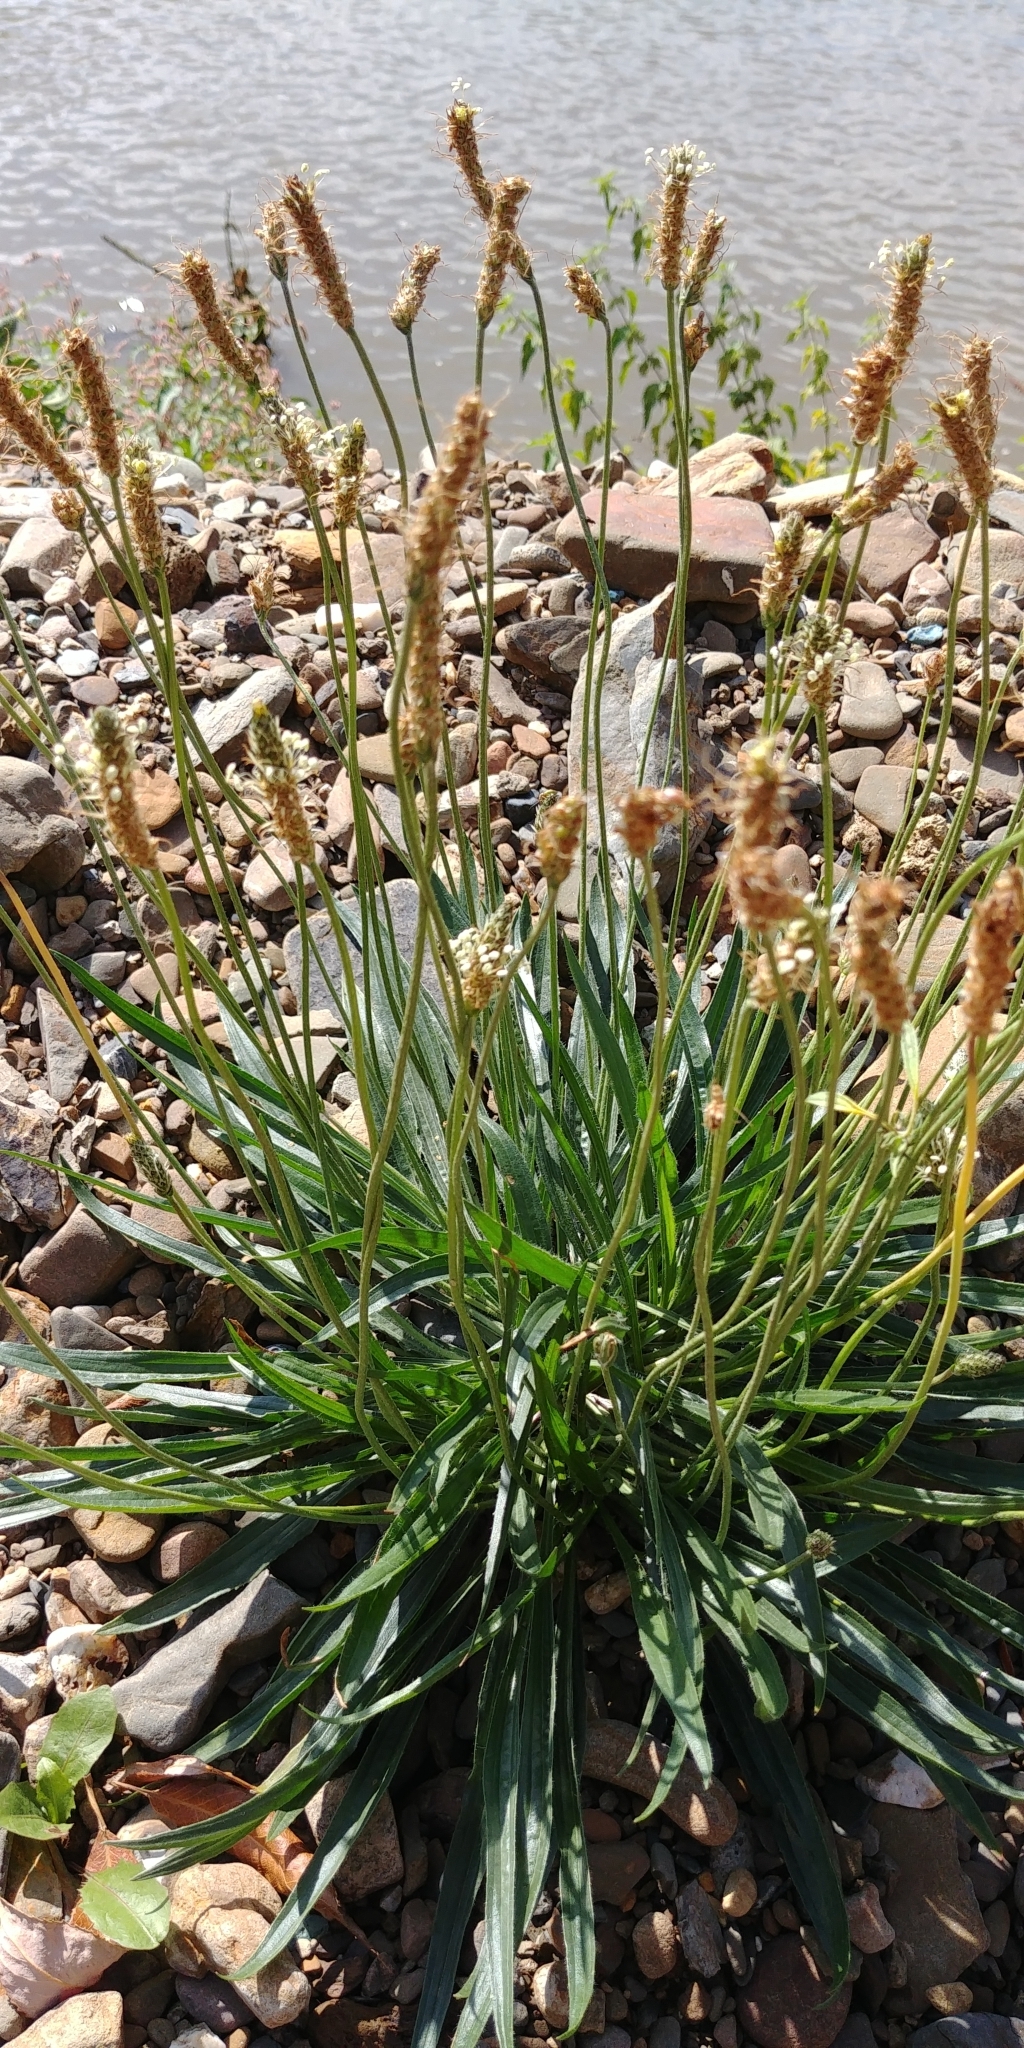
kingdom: Plantae
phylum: Tracheophyta
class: Magnoliopsida
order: Lamiales
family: Plantaginaceae
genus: Plantago
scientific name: Plantago lanceolata
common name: Ribwort plantain
